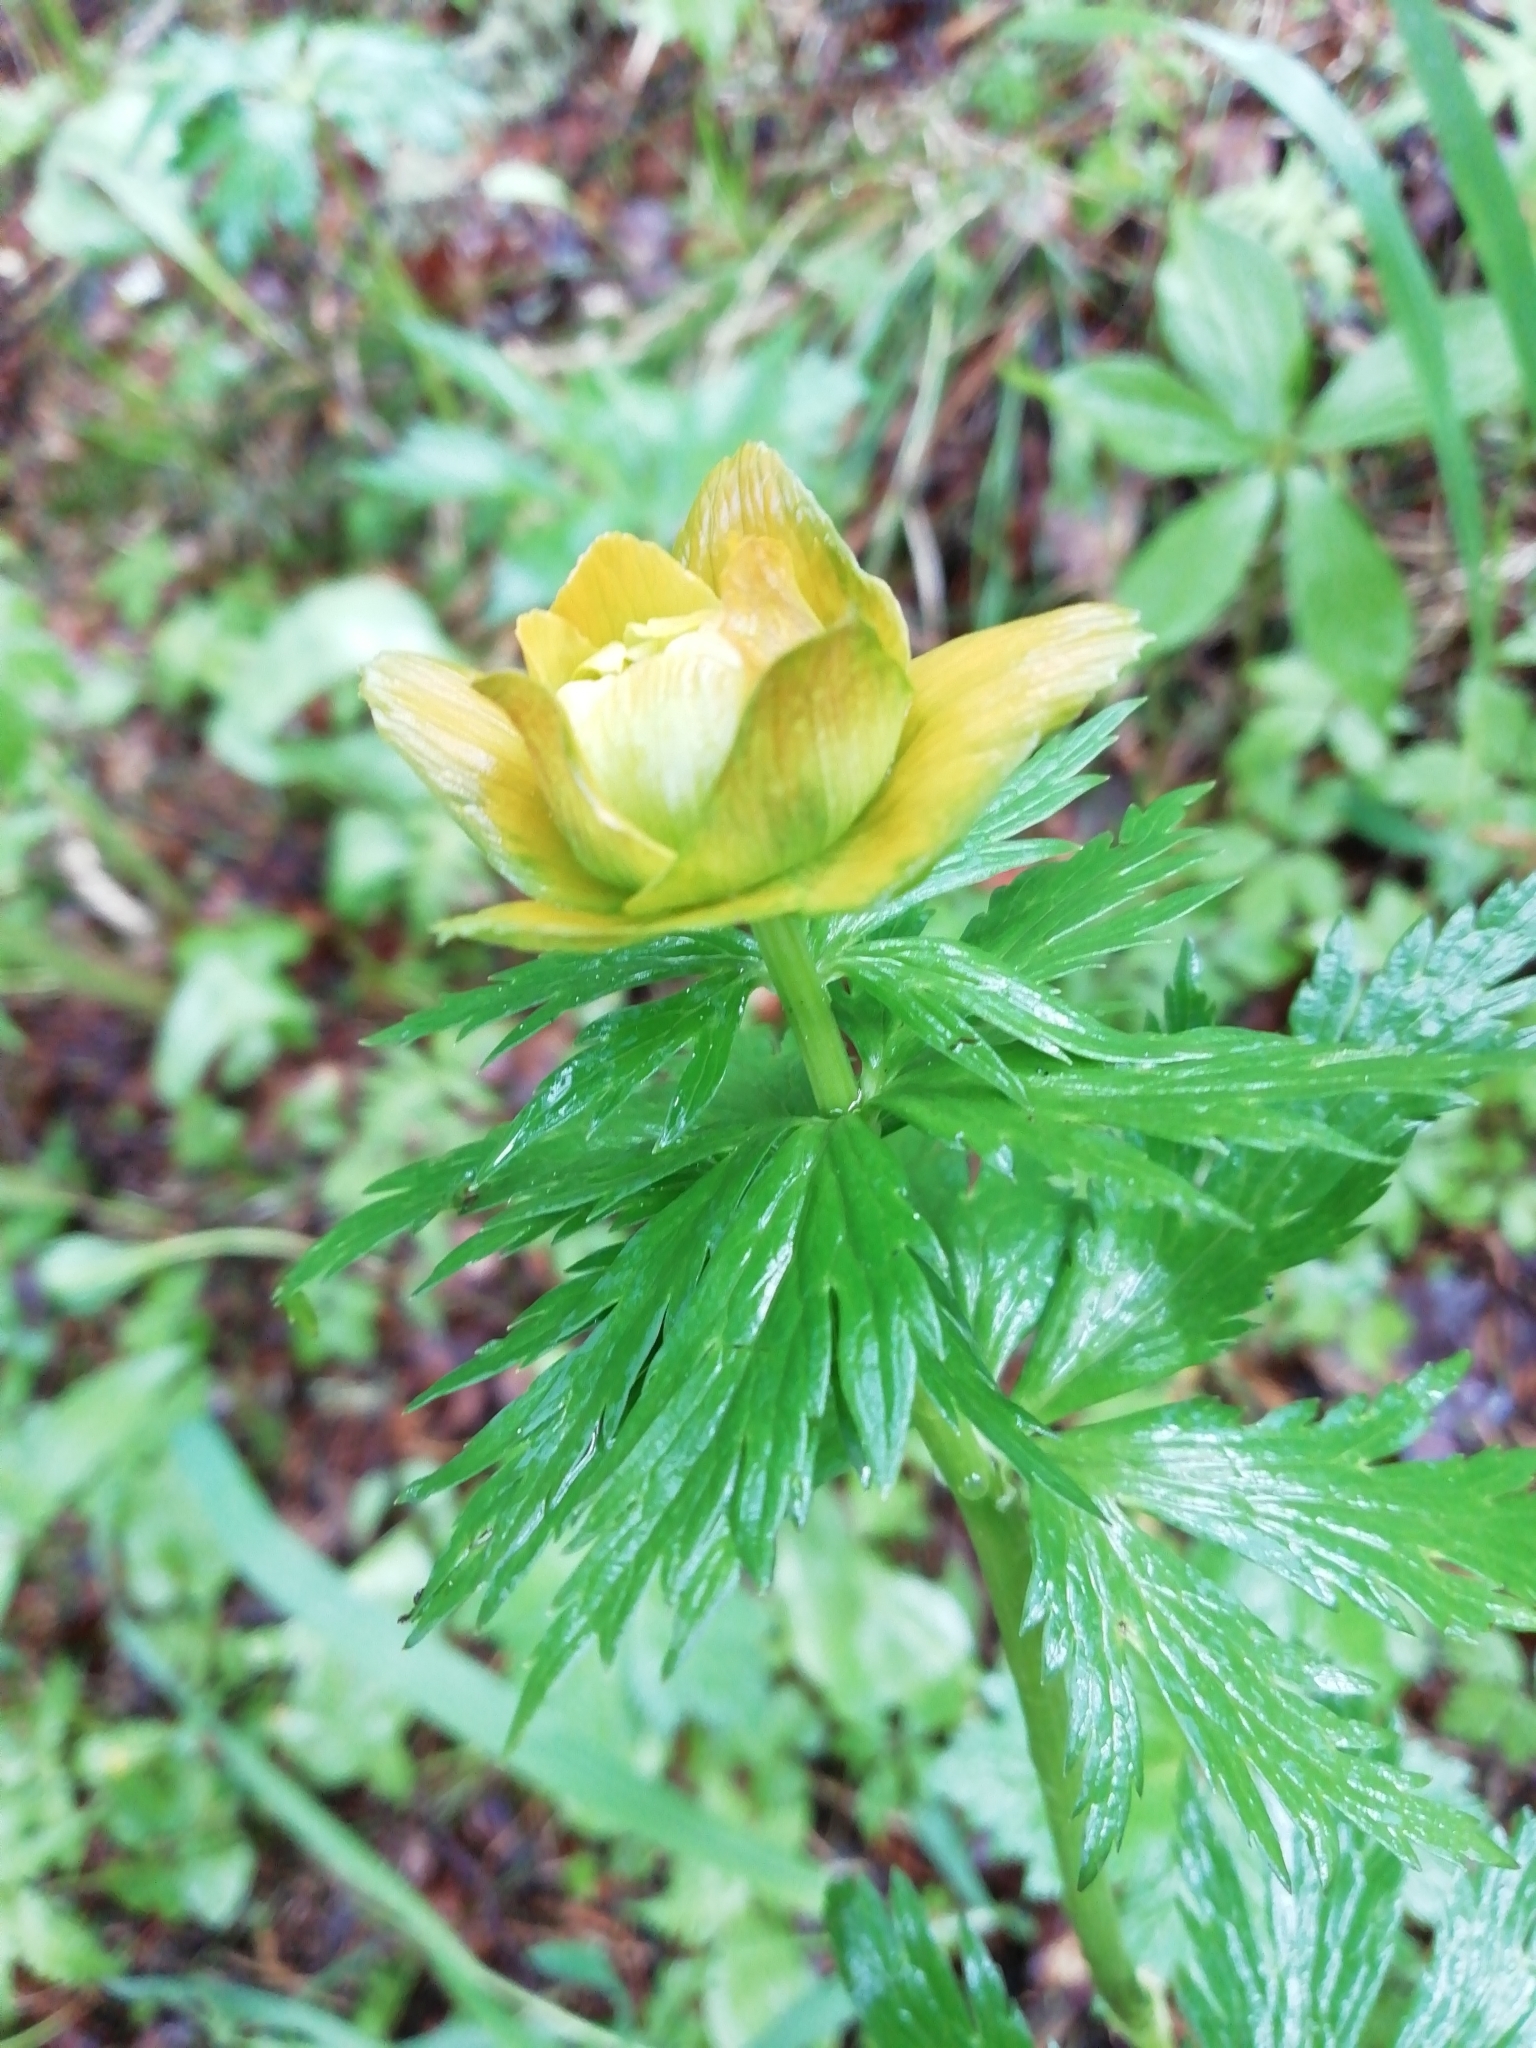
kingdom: Plantae
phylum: Tracheophyta
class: Magnoliopsida
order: Ranunculales
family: Ranunculaceae
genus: Trollius
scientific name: Trollius asiaticus
